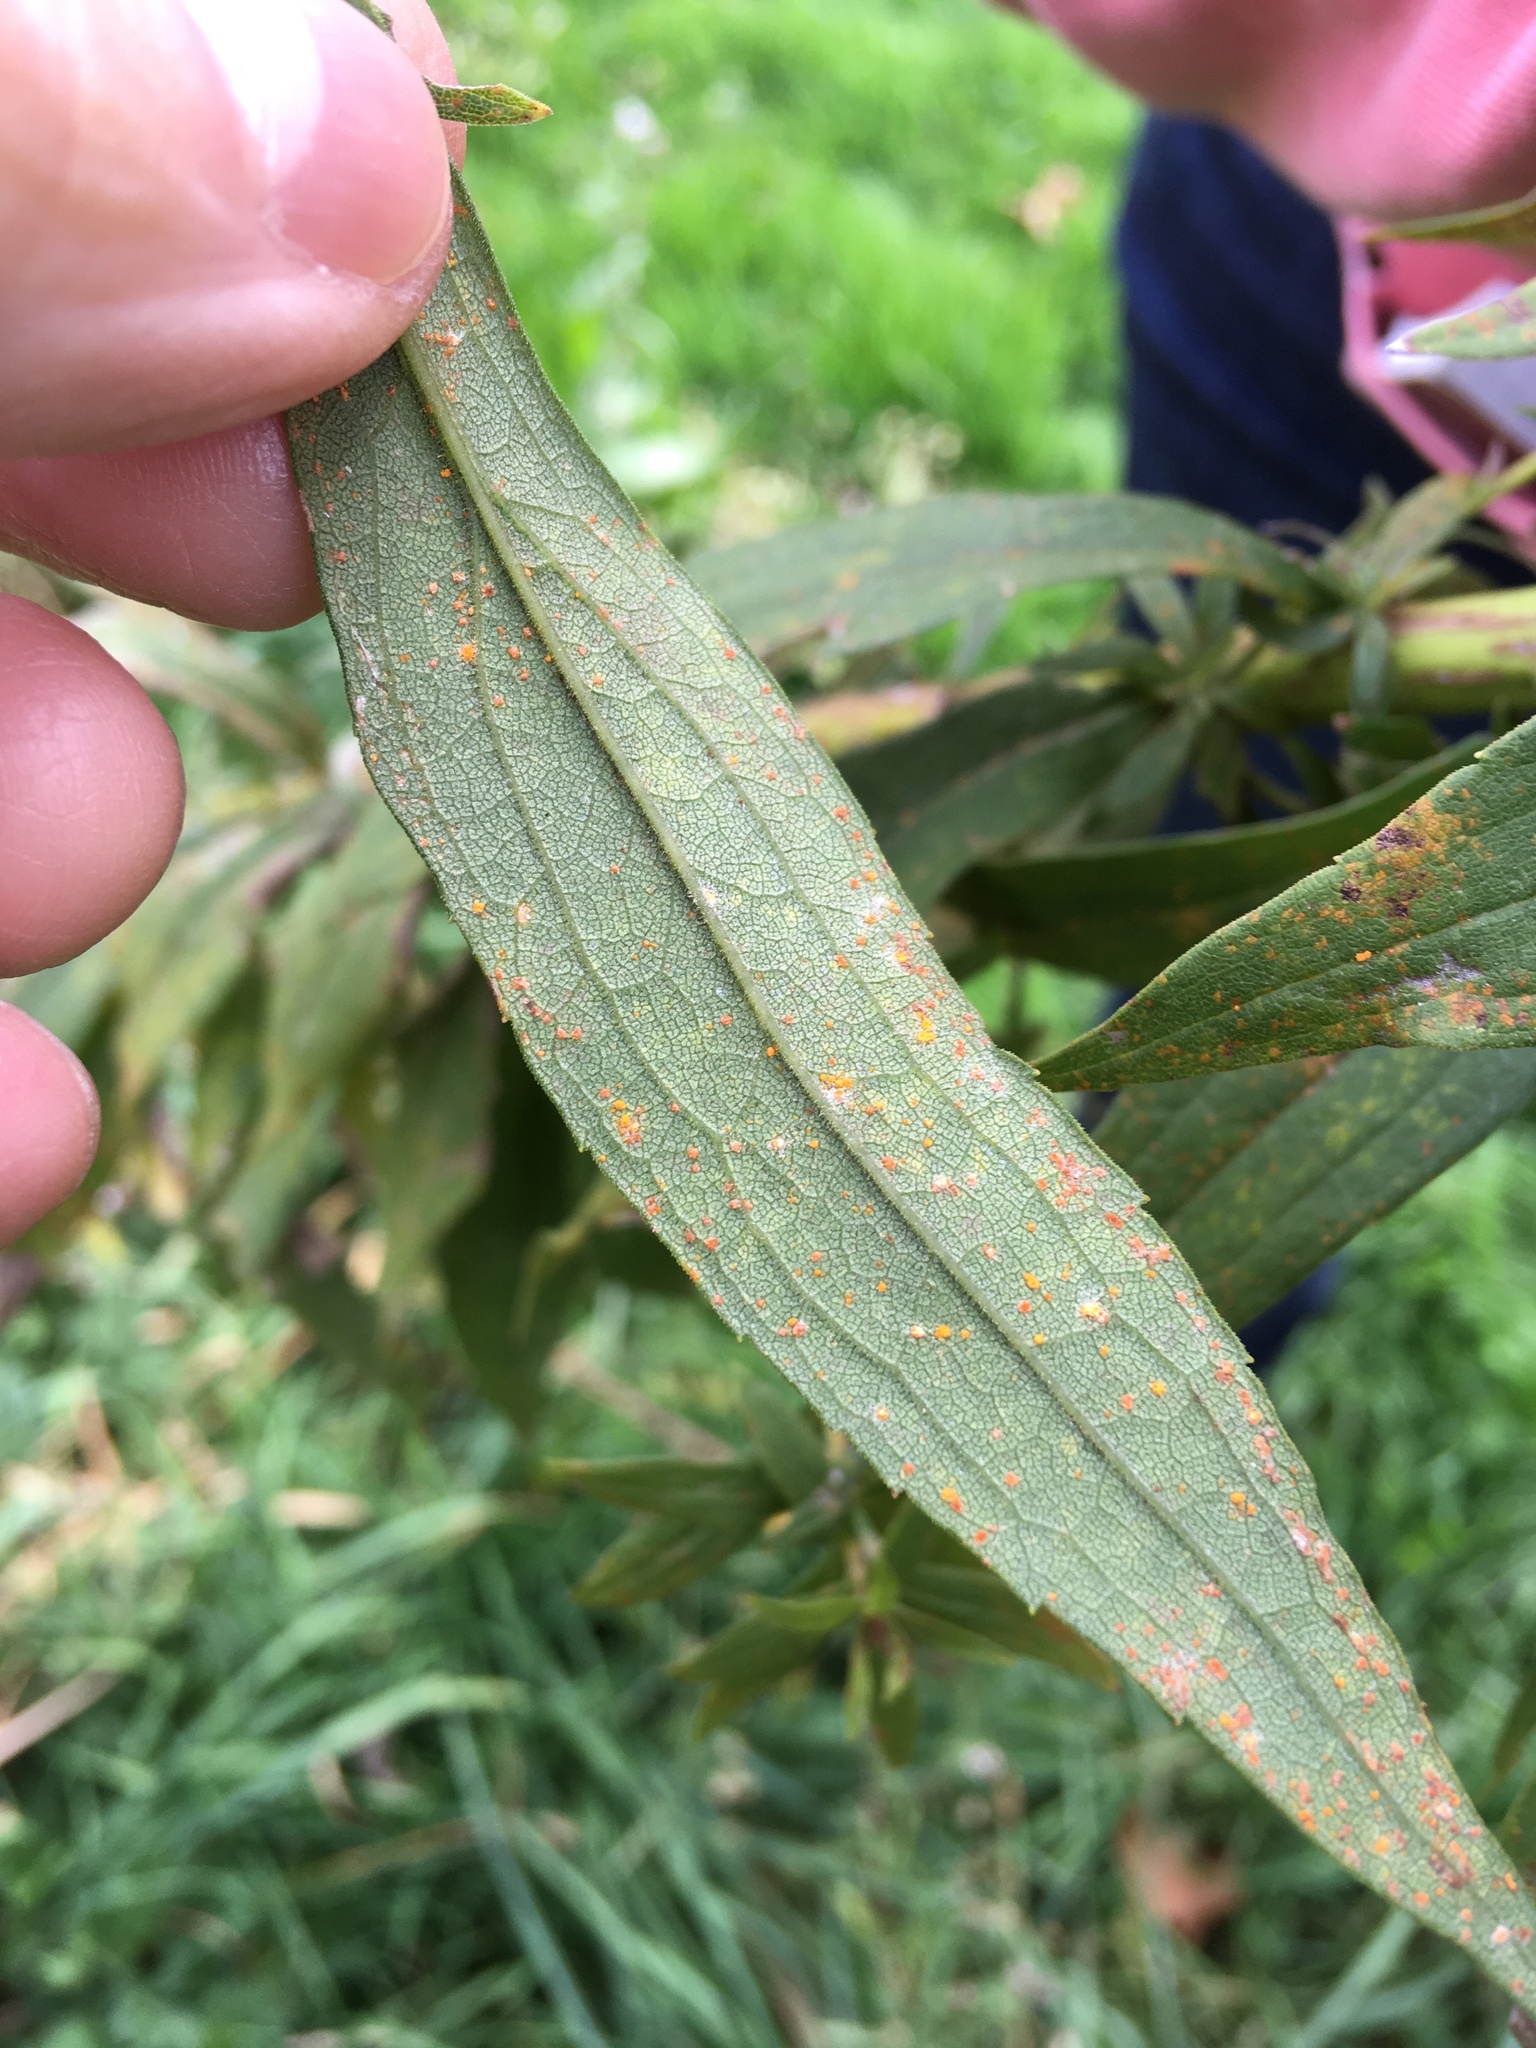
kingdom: Plantae
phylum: Tracheophyta
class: Magnoliopsida
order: Asterales
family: Asteraceae
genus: Solidago
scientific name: Solidago altissima
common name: Late goldenrod
